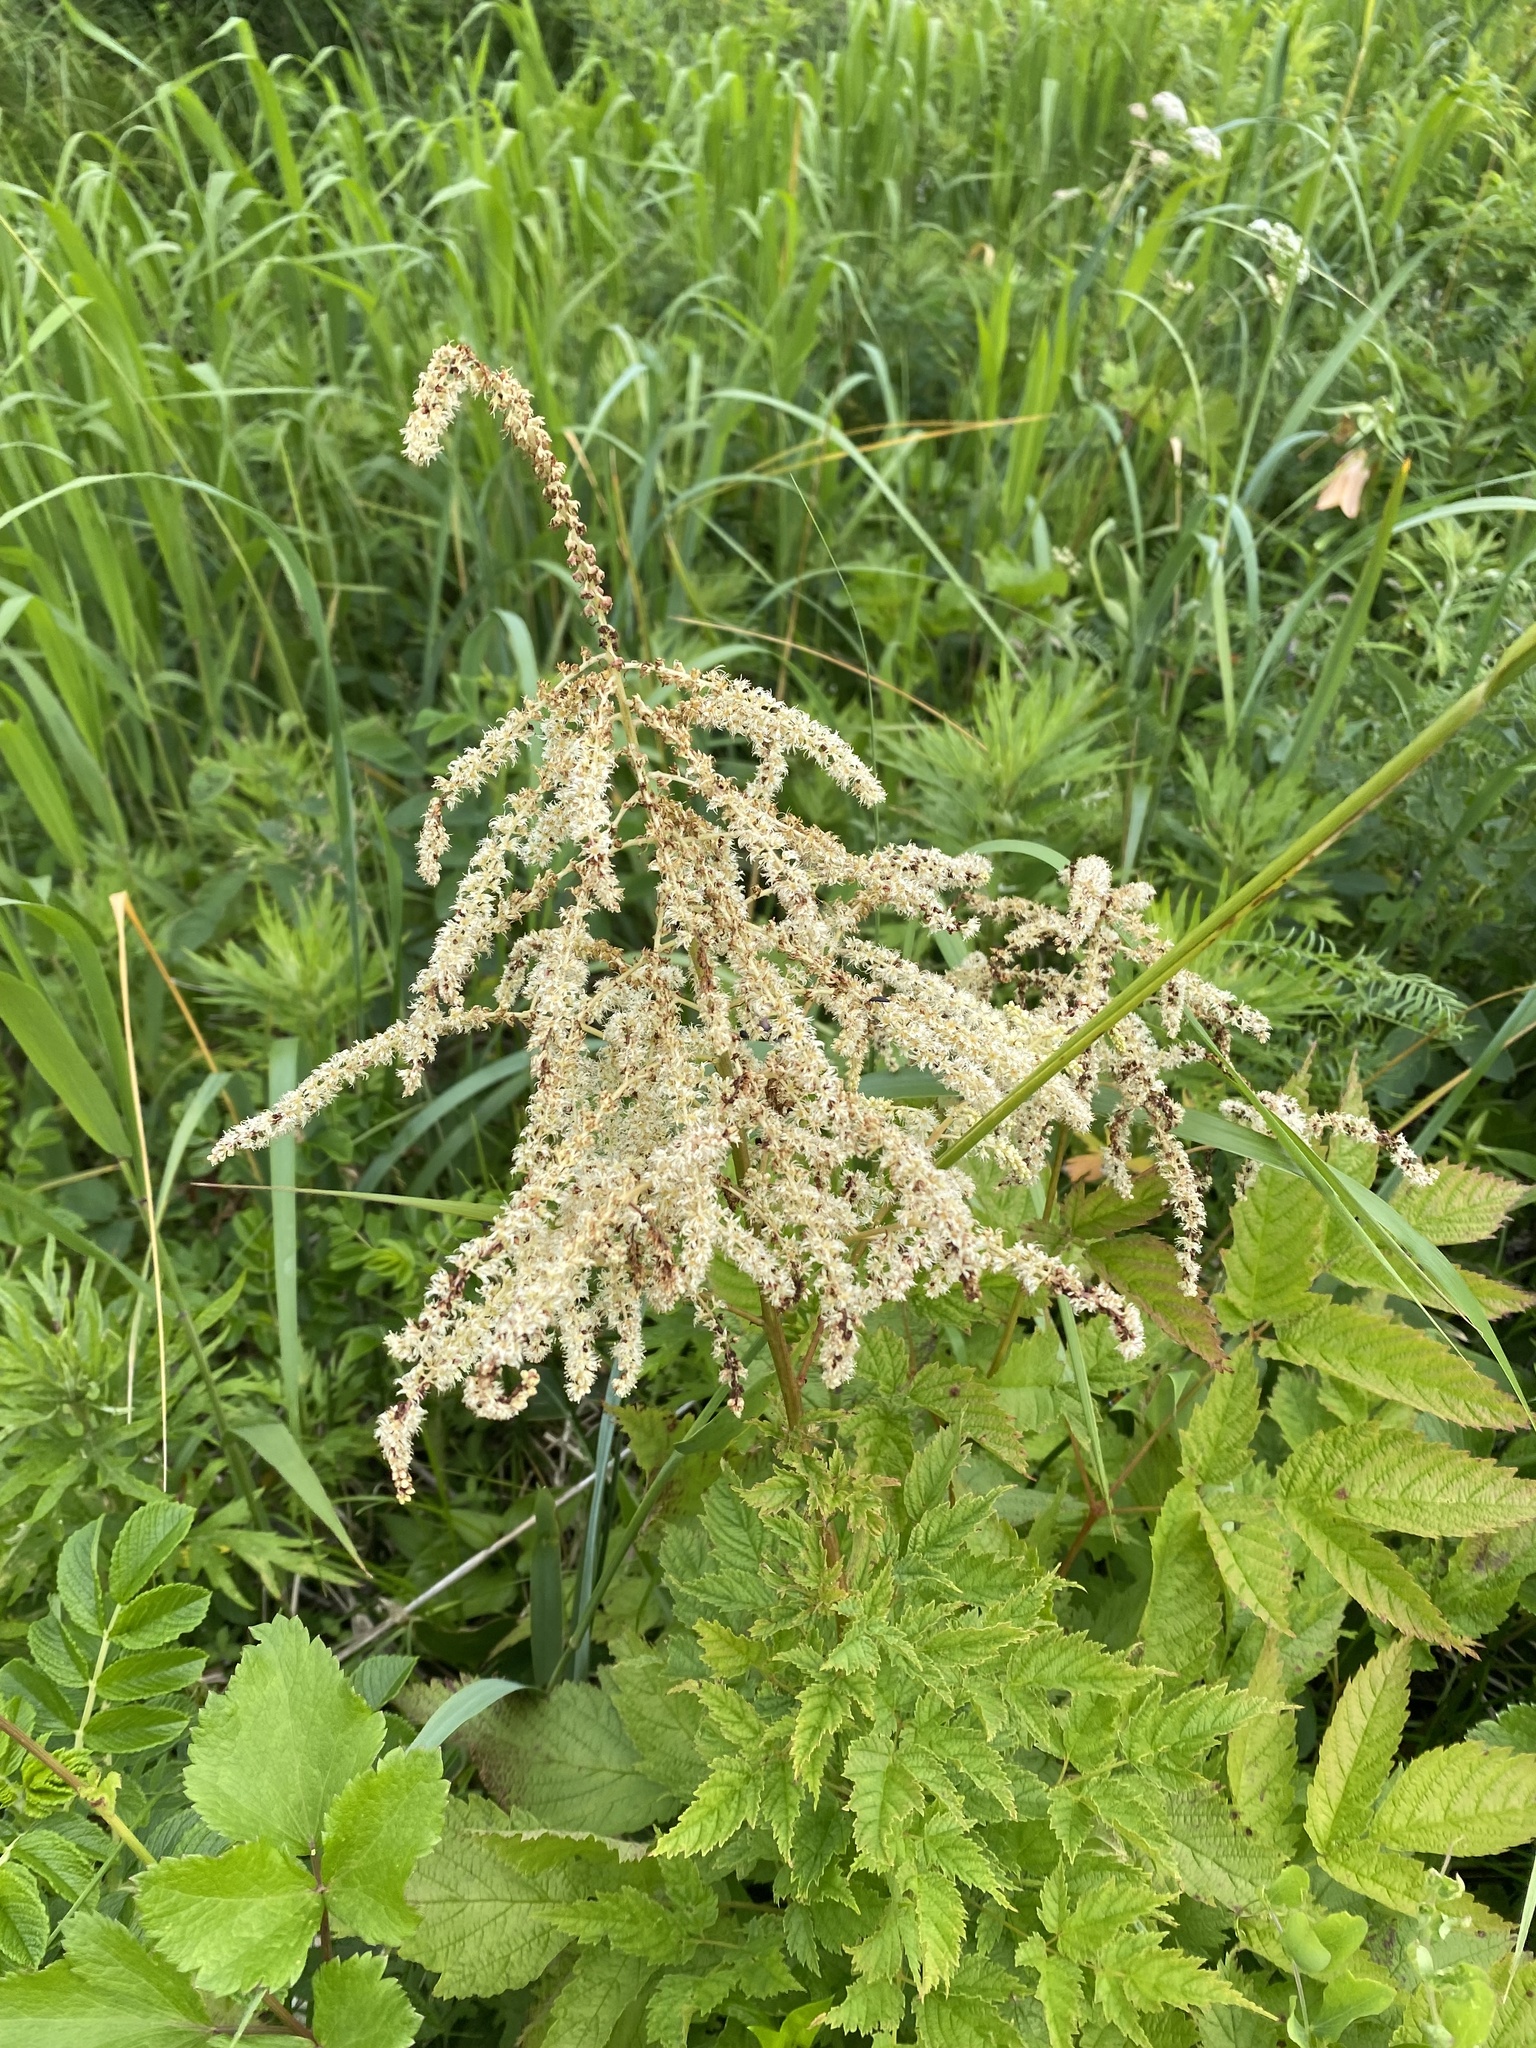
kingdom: Plantae
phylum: Tracheophyta
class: Magnoliopsida
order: Rosales
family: Rosaceae
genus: Aruncus
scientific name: Aruncus dioicus
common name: Buck's-beard
